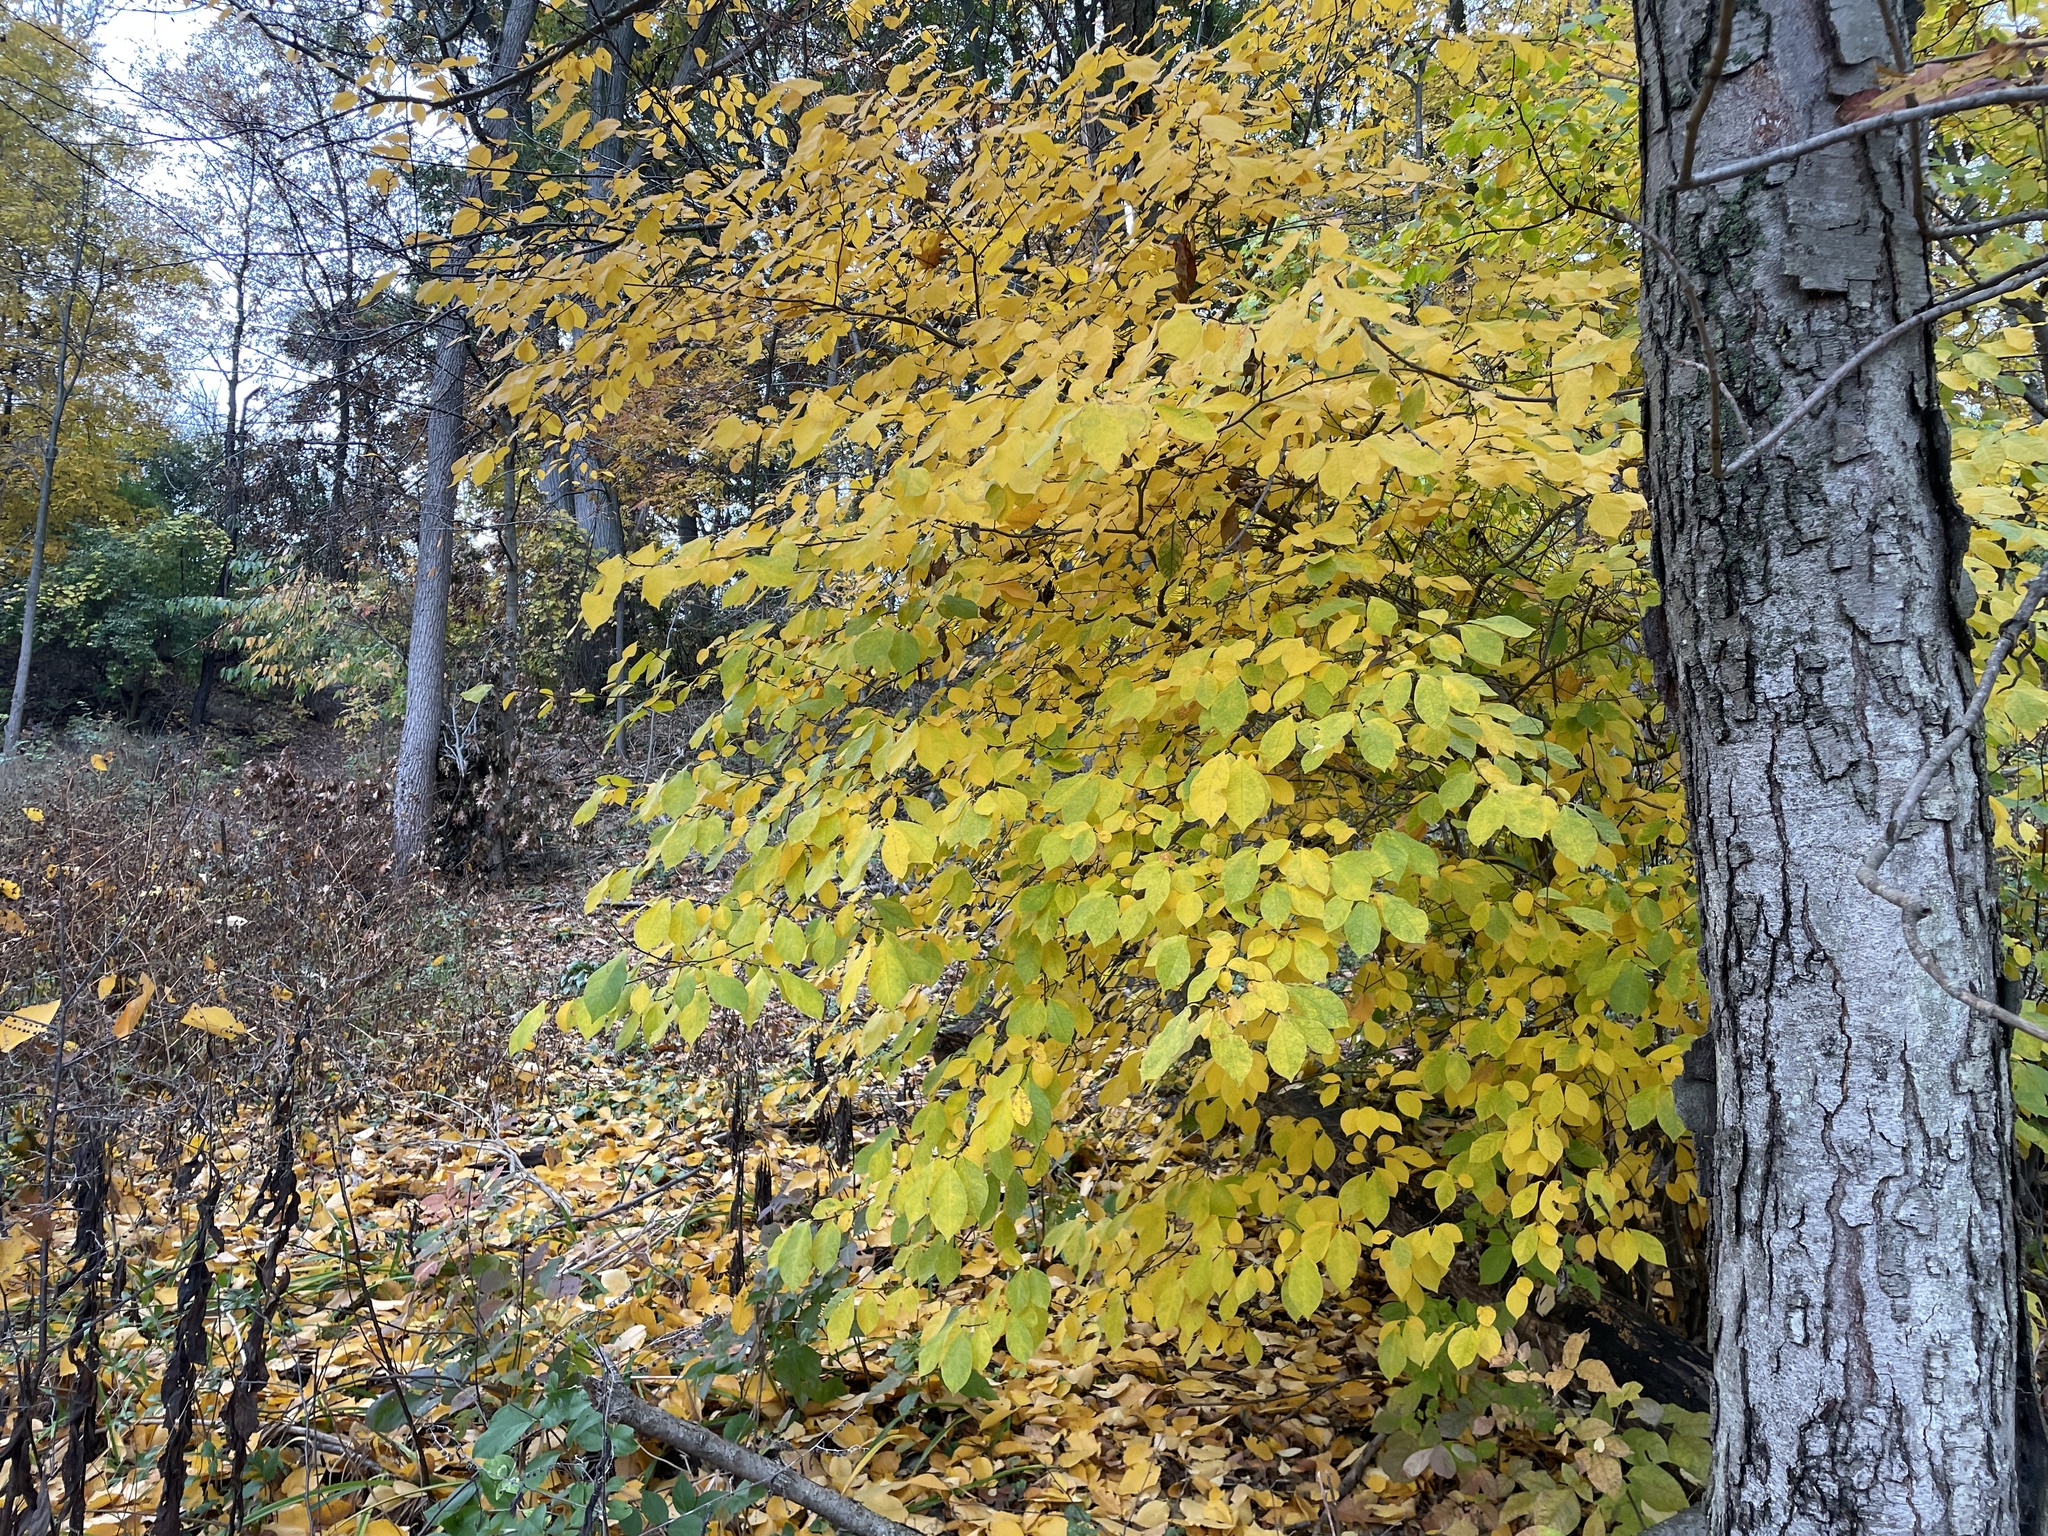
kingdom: Plantae
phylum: Tracheophyta
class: Magnoliopsida
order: Laurales
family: Lauraceae
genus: Lindera
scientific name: Lindera benzoin
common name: Spicebush
